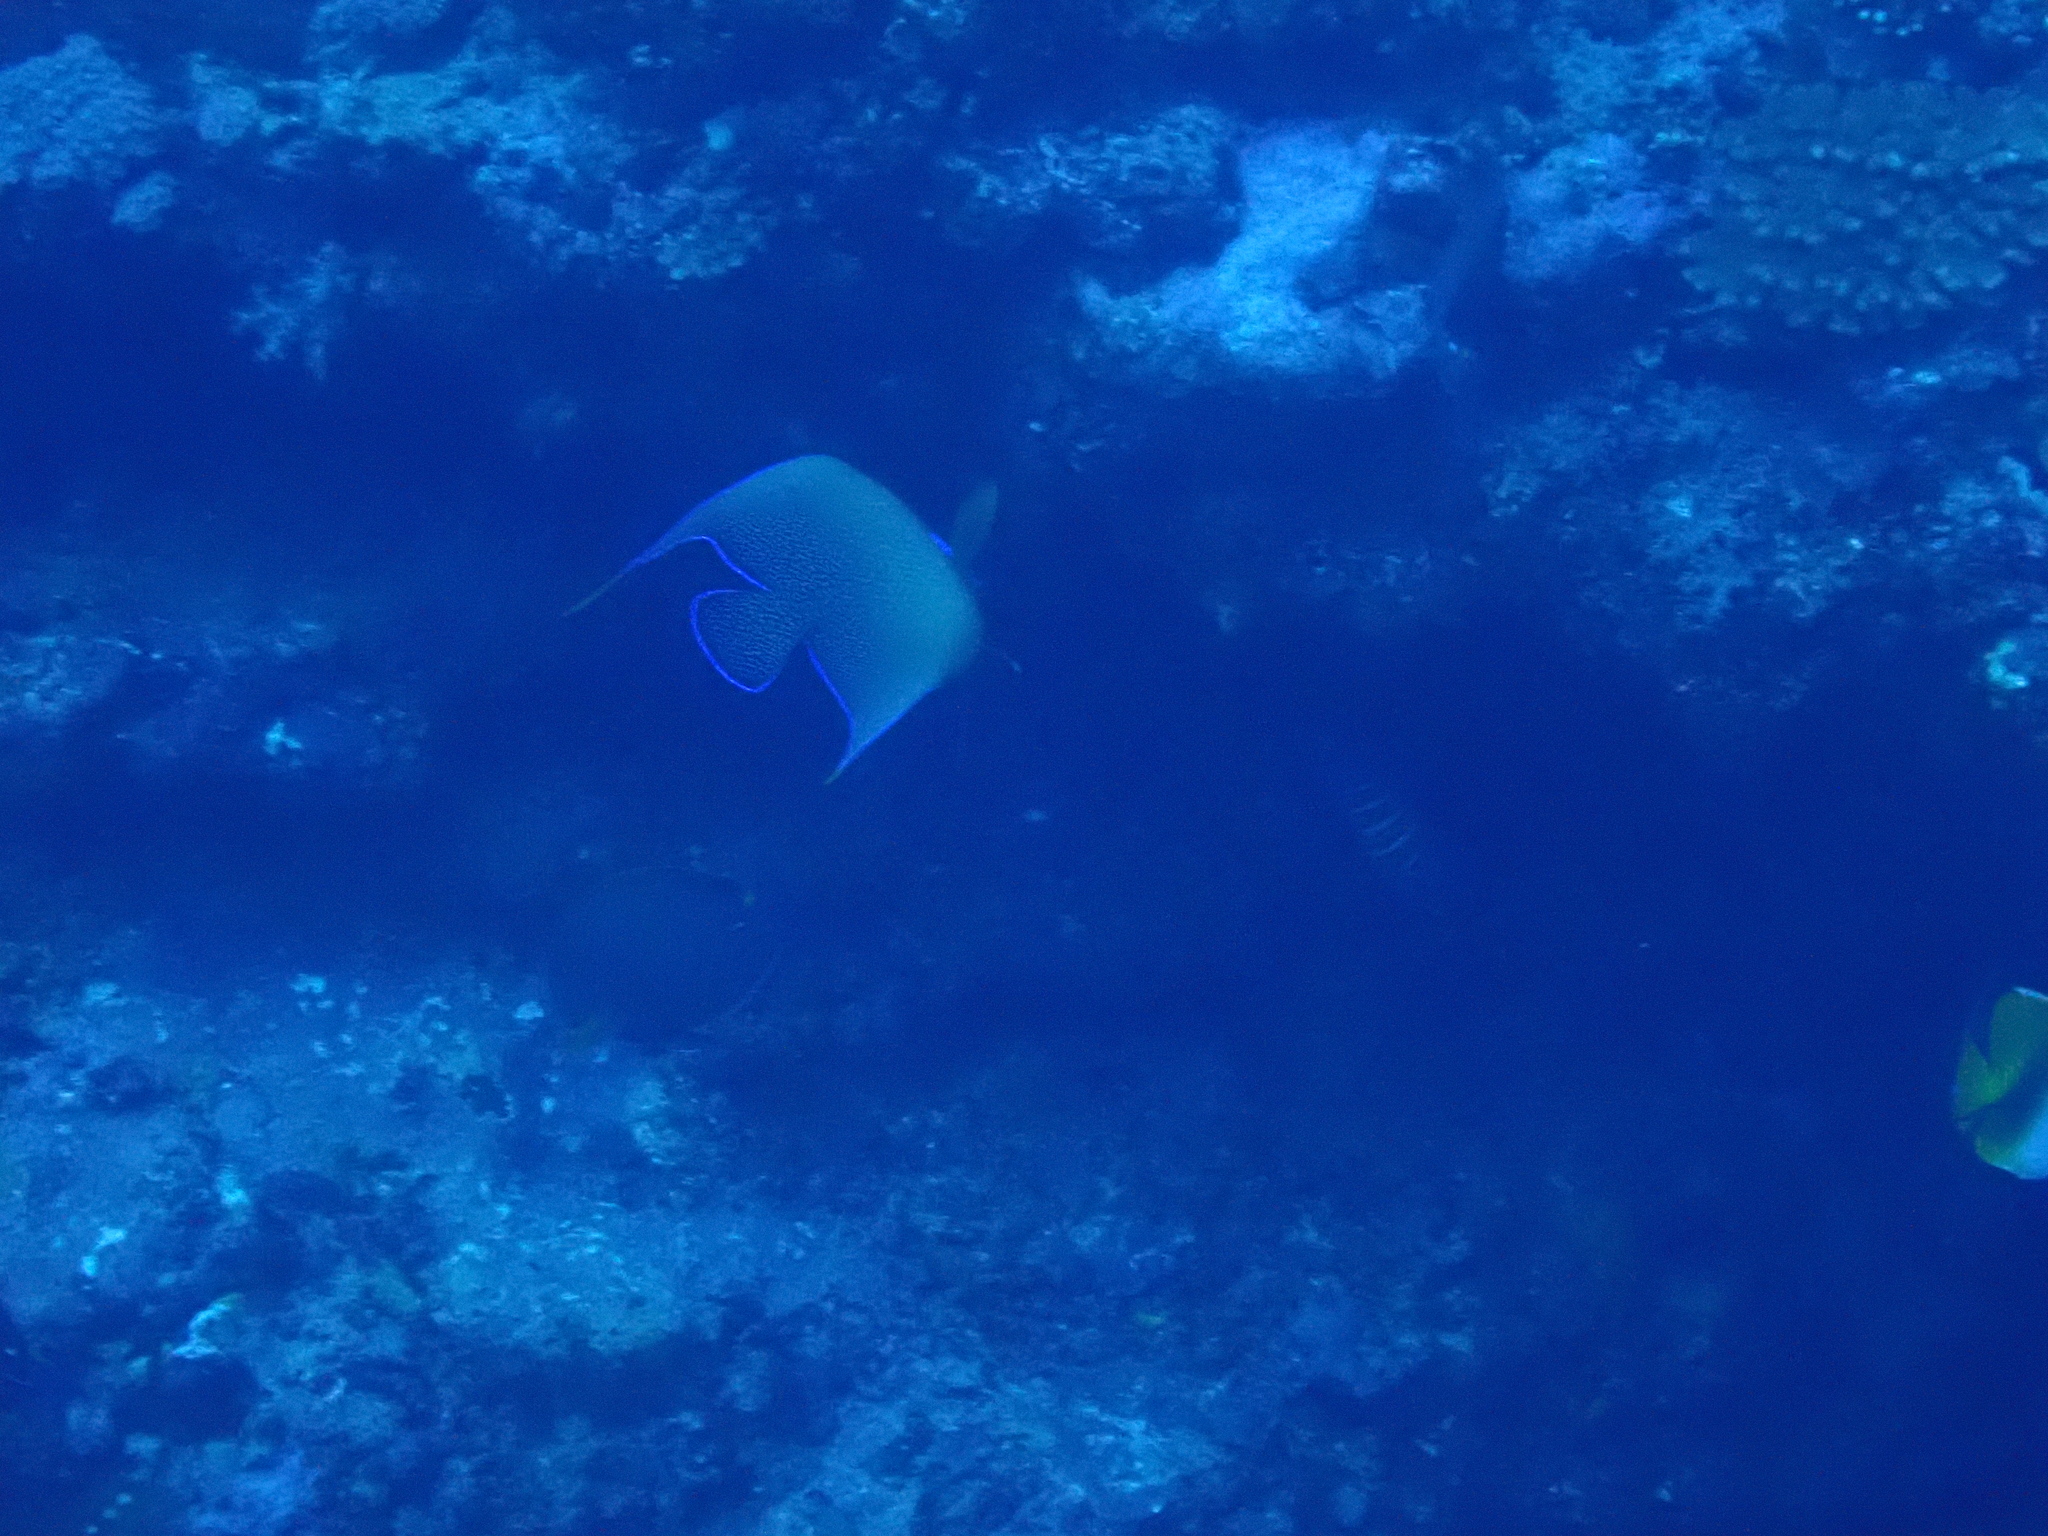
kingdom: Animalia
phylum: Chordata
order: Perciformes
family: Pomacanthidae
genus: Pomacanthus
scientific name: Pomacanthus semicirculatus
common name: Semicircle angelfish
